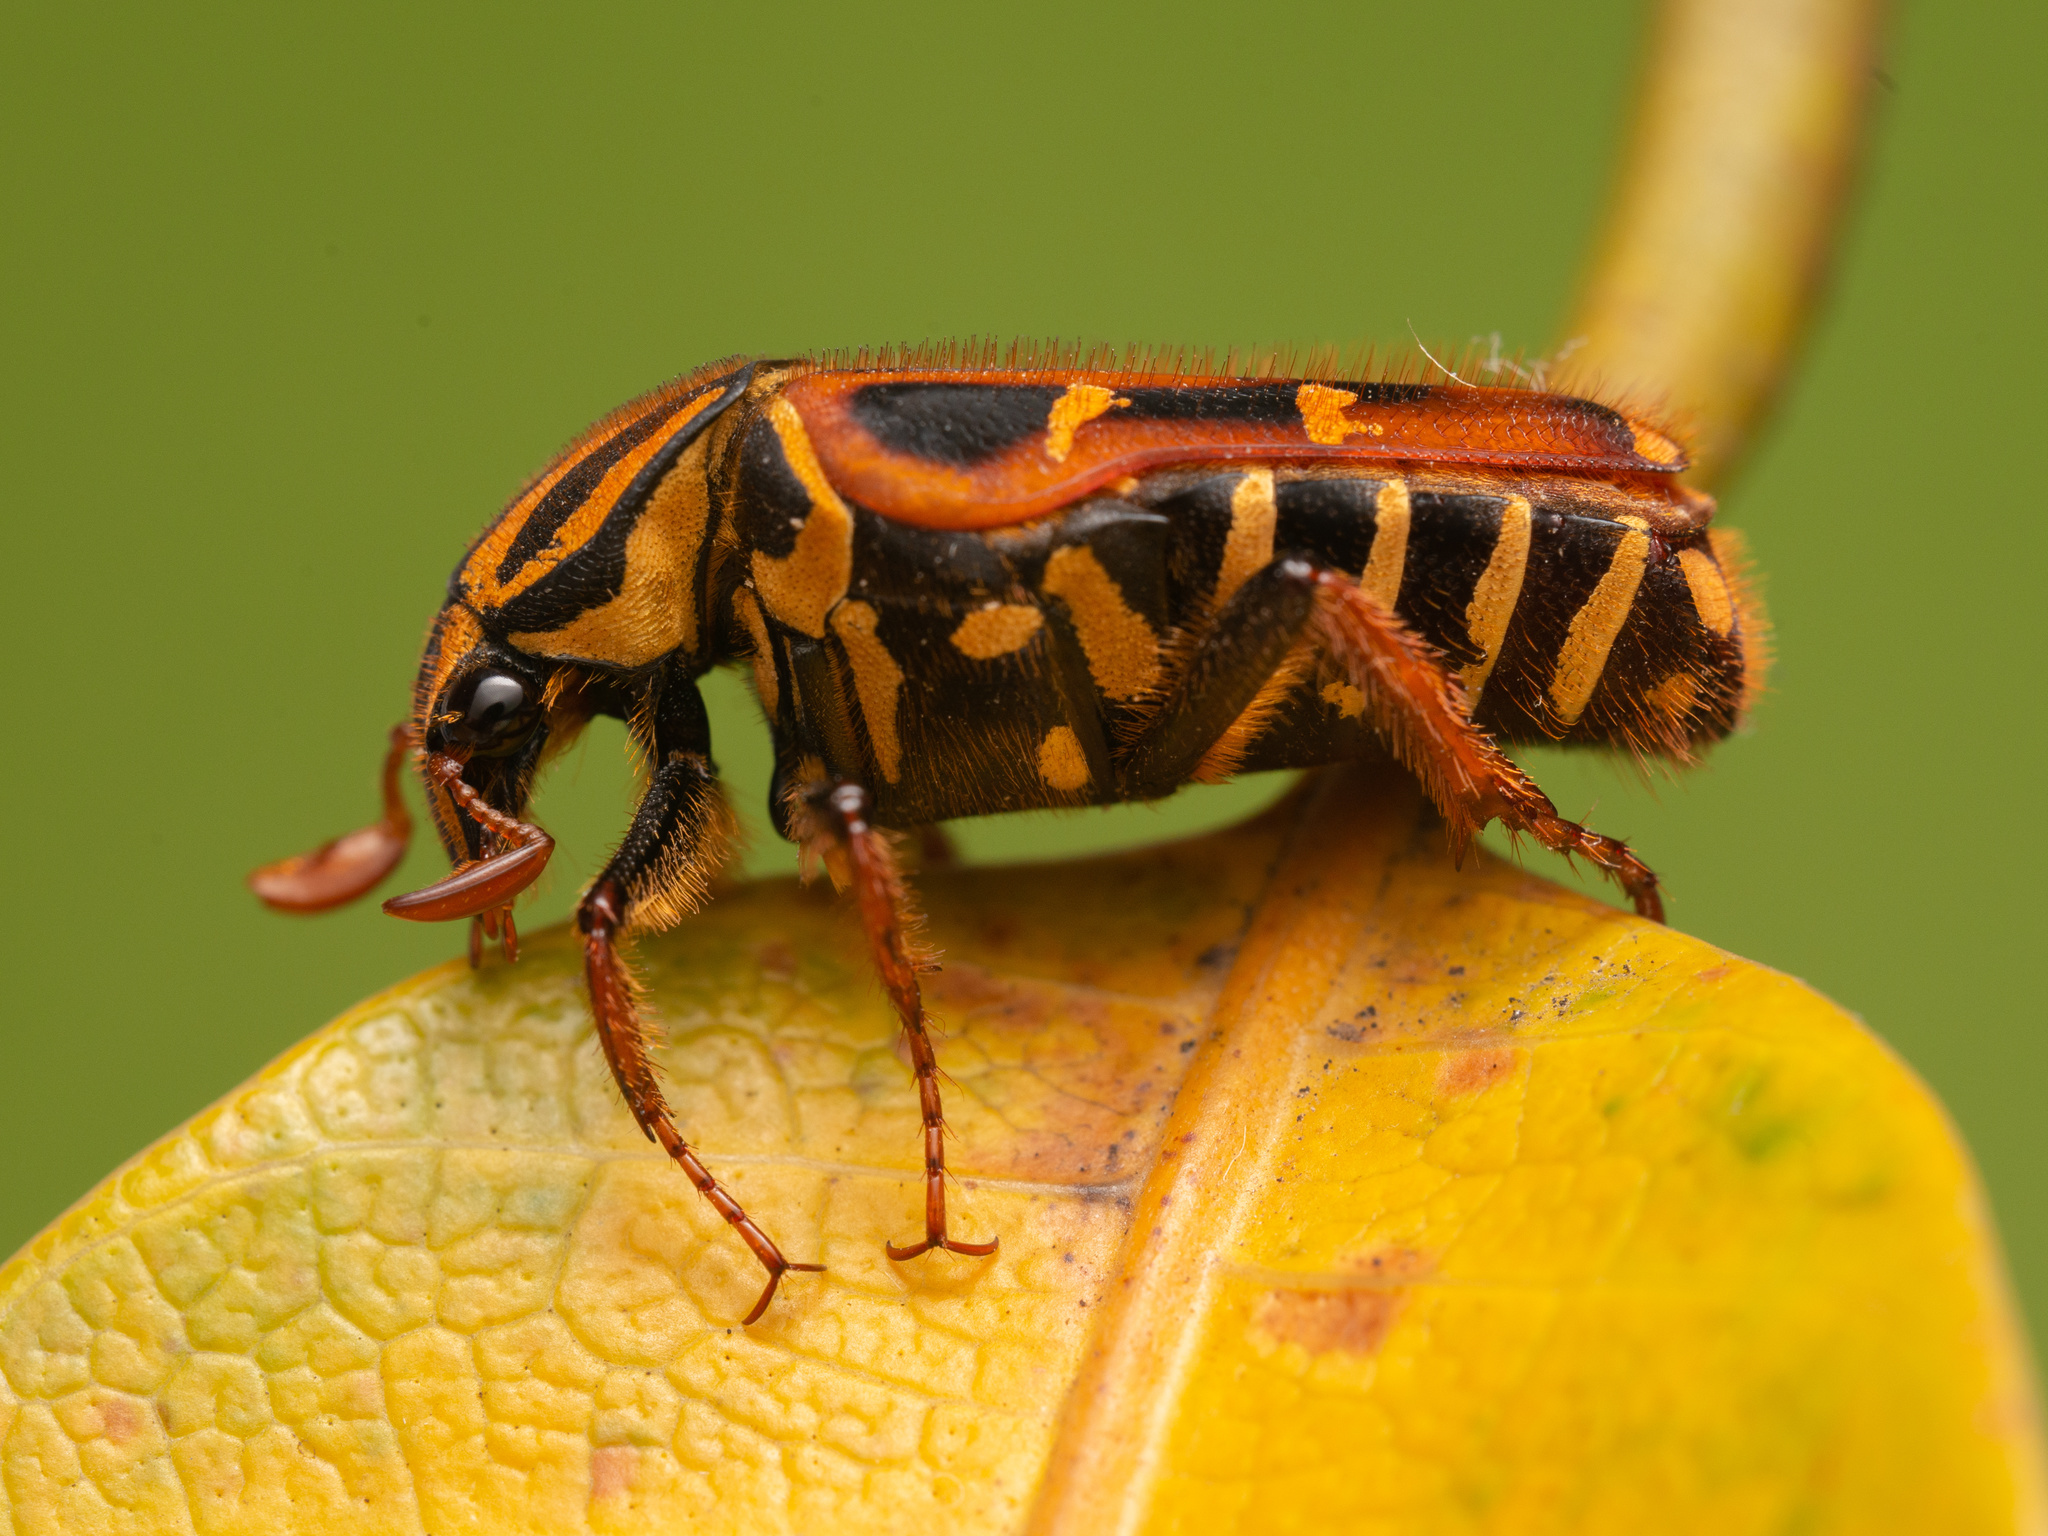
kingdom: Animalia
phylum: Arthropoda
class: Insecta
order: Coleoptera
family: Scarabaeidae
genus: Euselates
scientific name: Euselates magna
